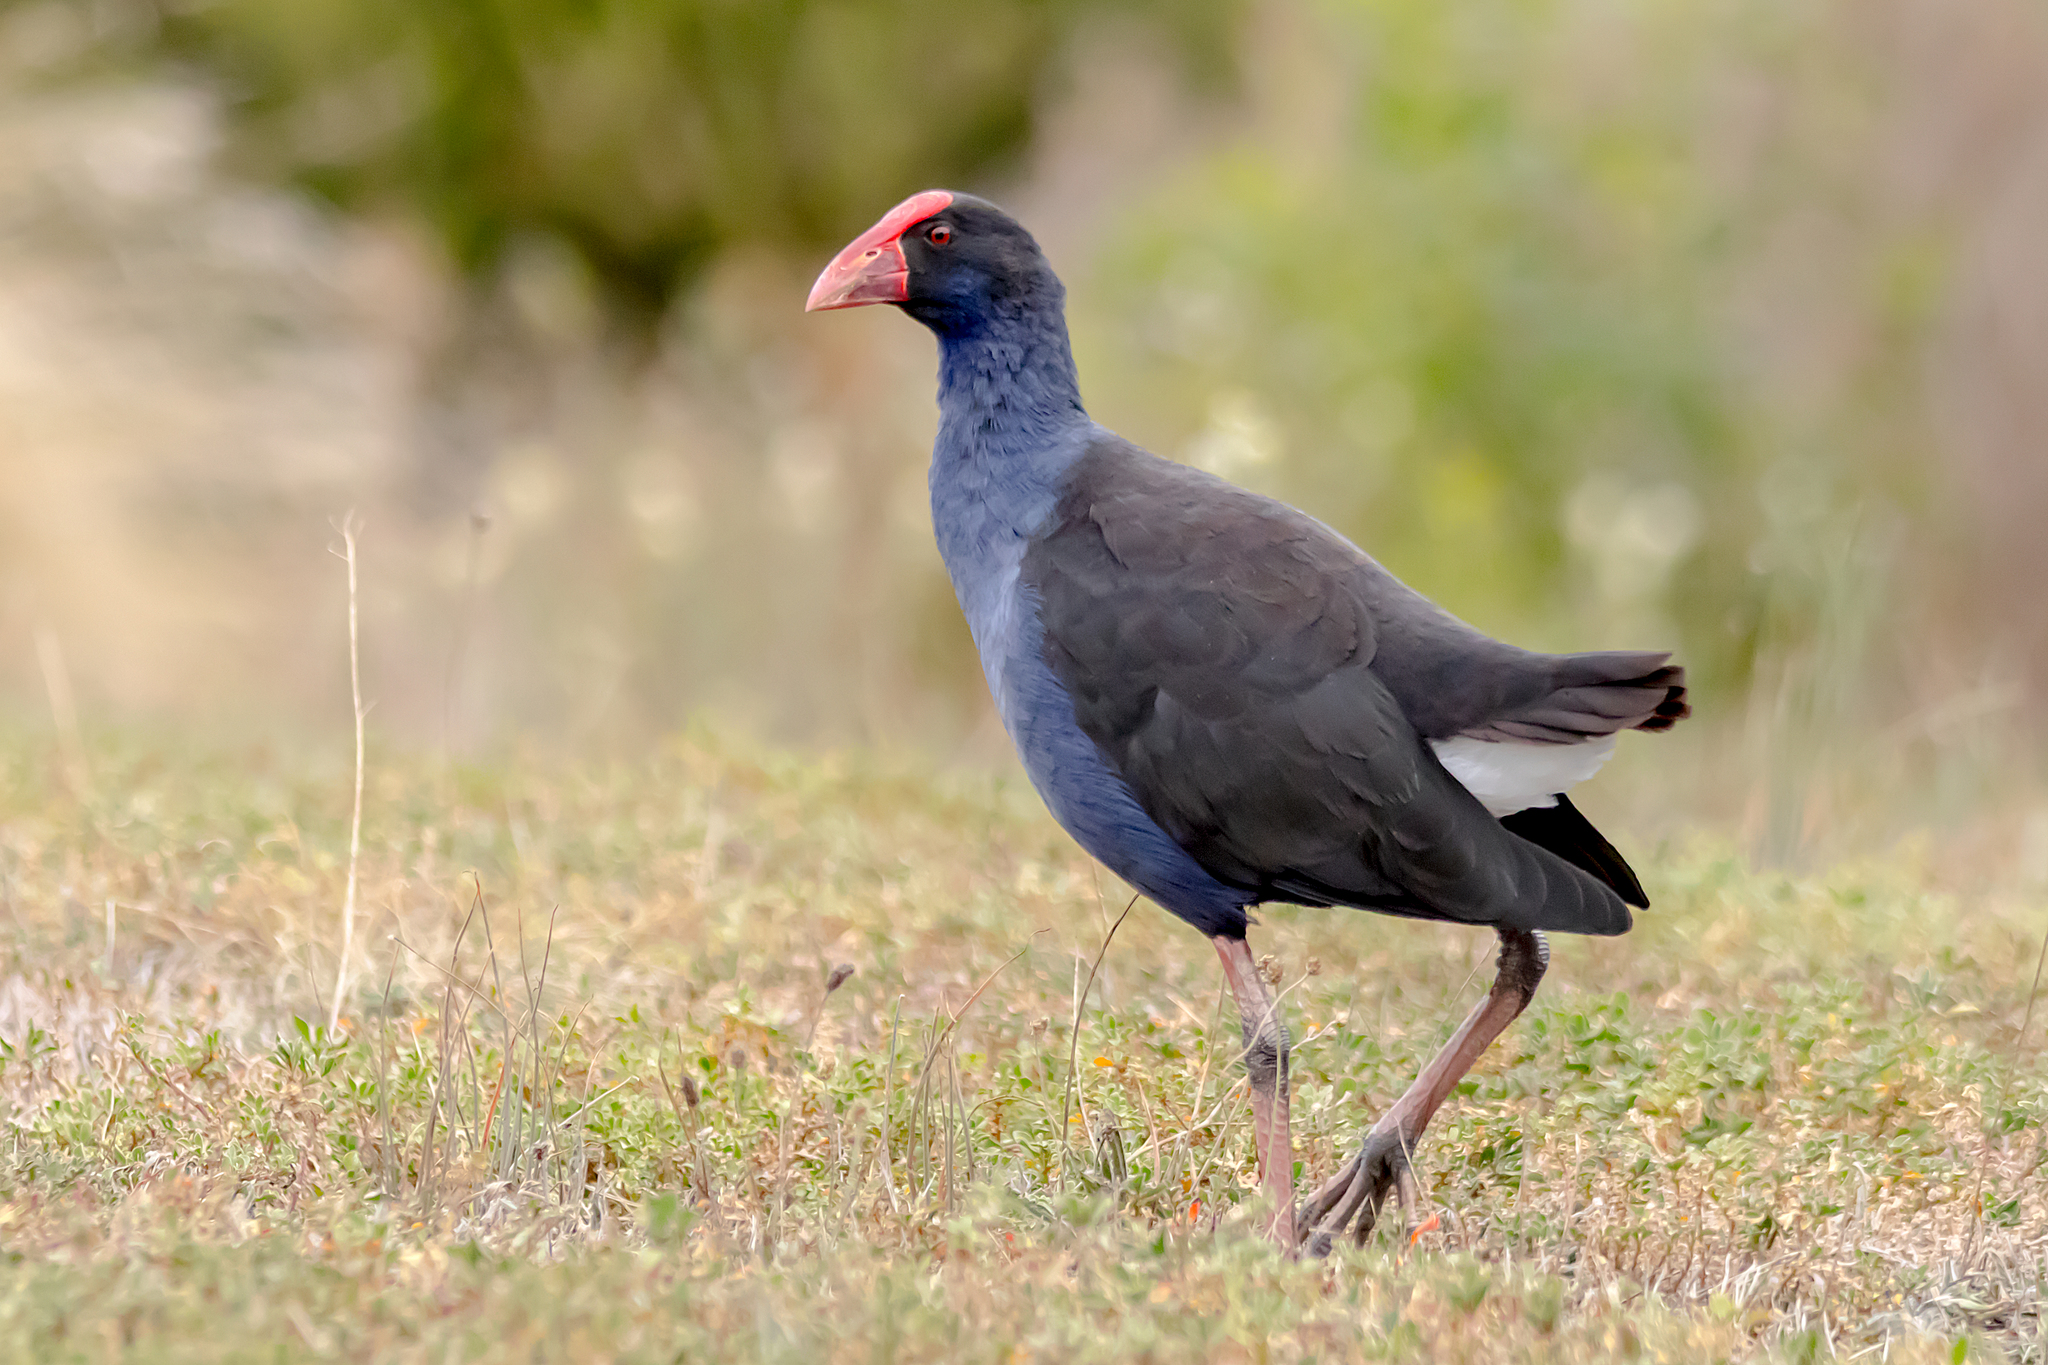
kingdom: Animalia
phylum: Chordata
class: Aves
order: Gruiformes
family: Rallidae
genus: Porphyrio
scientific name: Porphyrio melanotus
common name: Australasian swamphen
